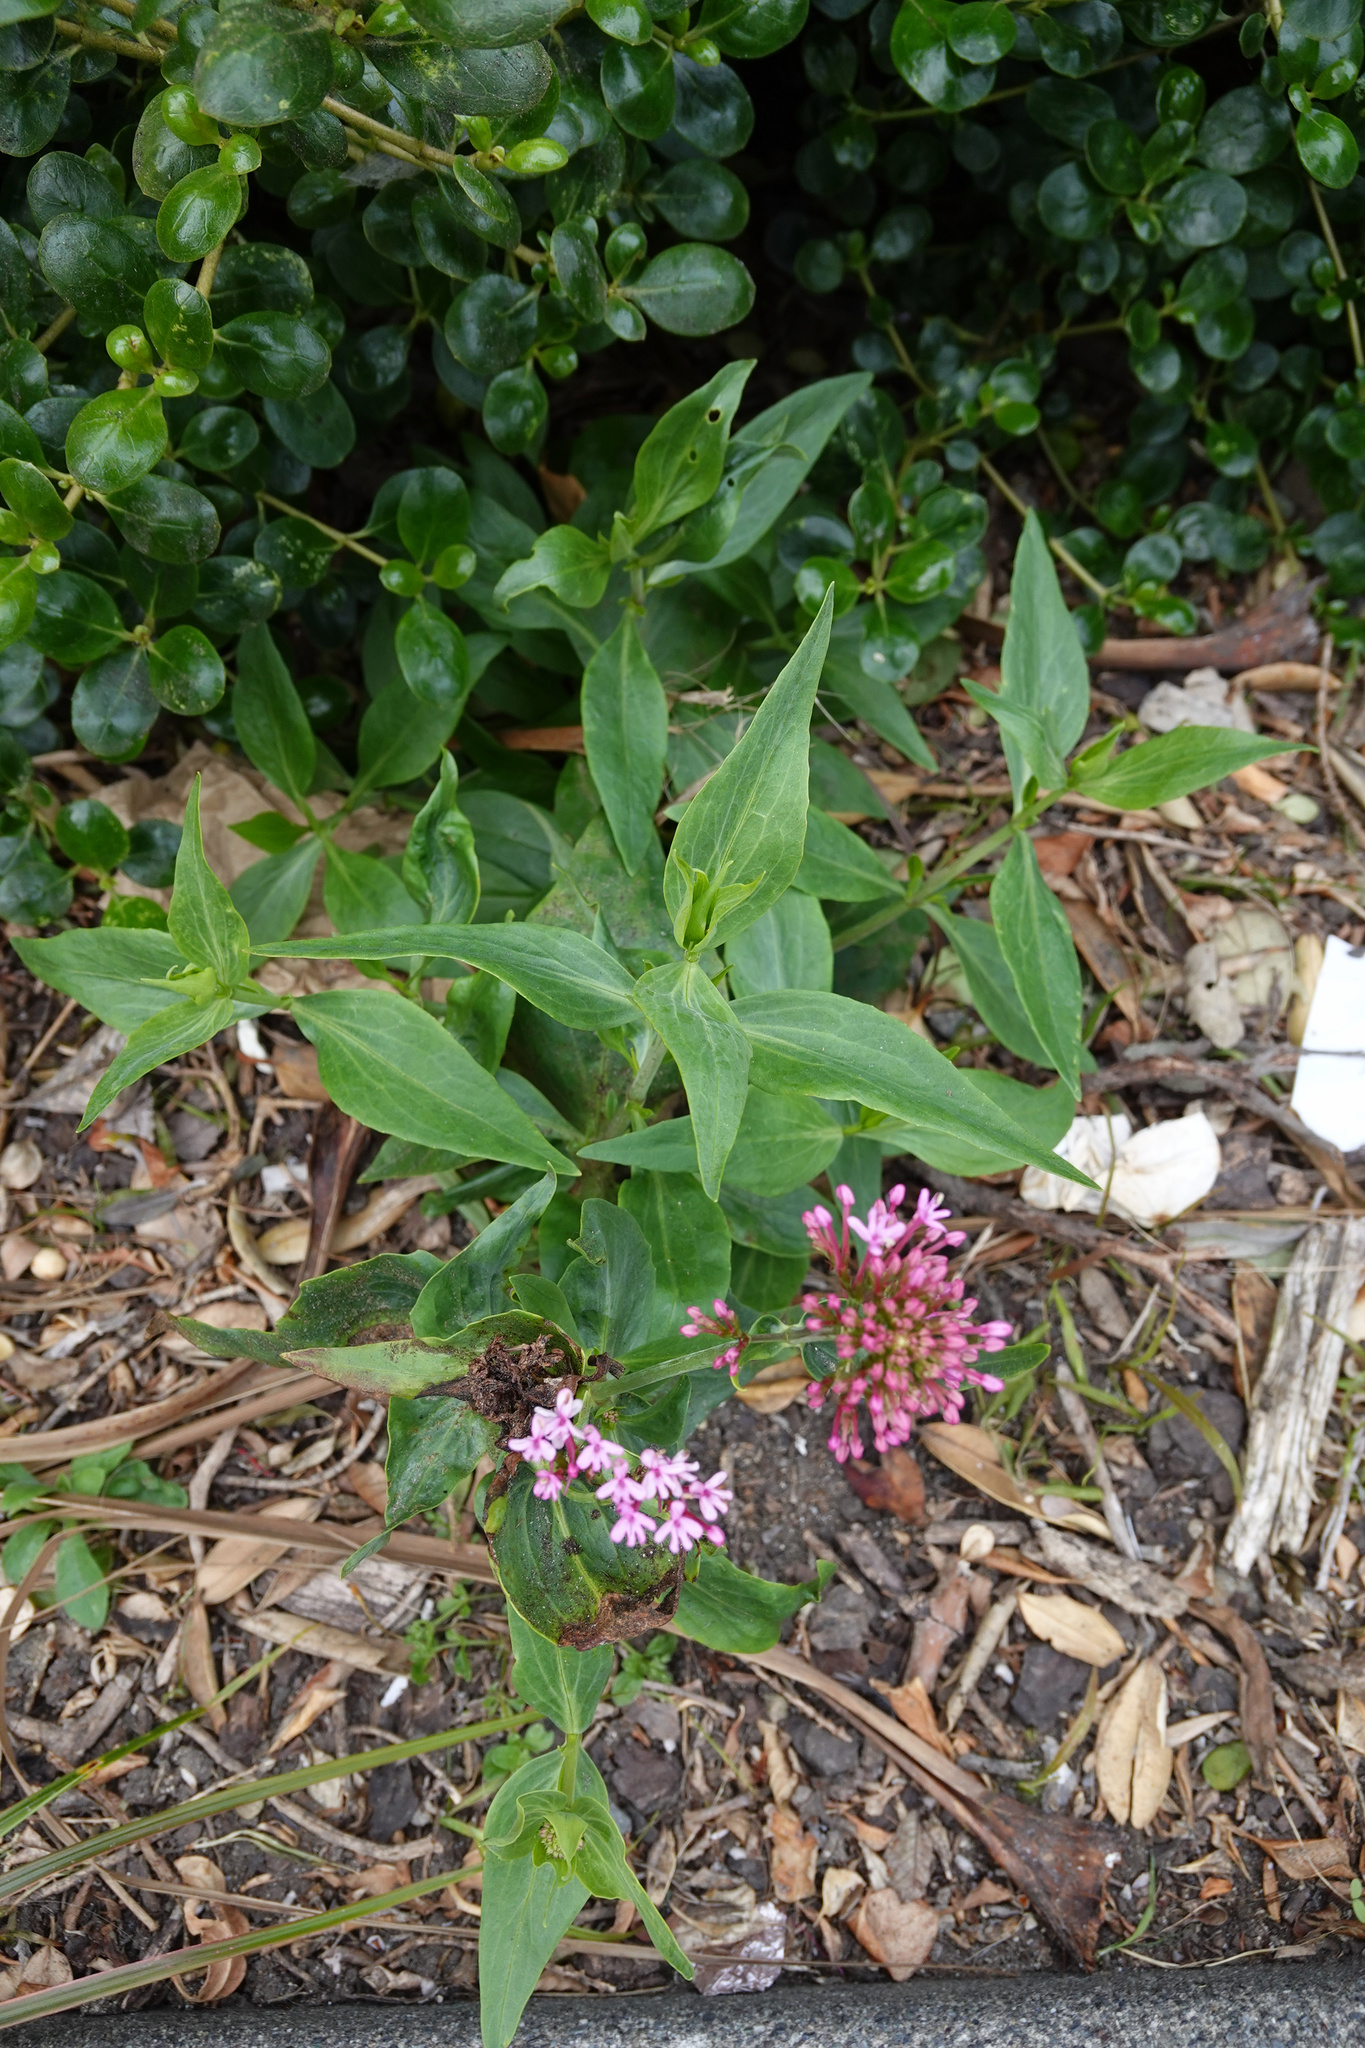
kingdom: Plantae
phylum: Tracheophyta
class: Magnoliopsida
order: Dipsacales
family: Caprifoliaceae
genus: Centranthus
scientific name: Centranthus ruber
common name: Red valerian
